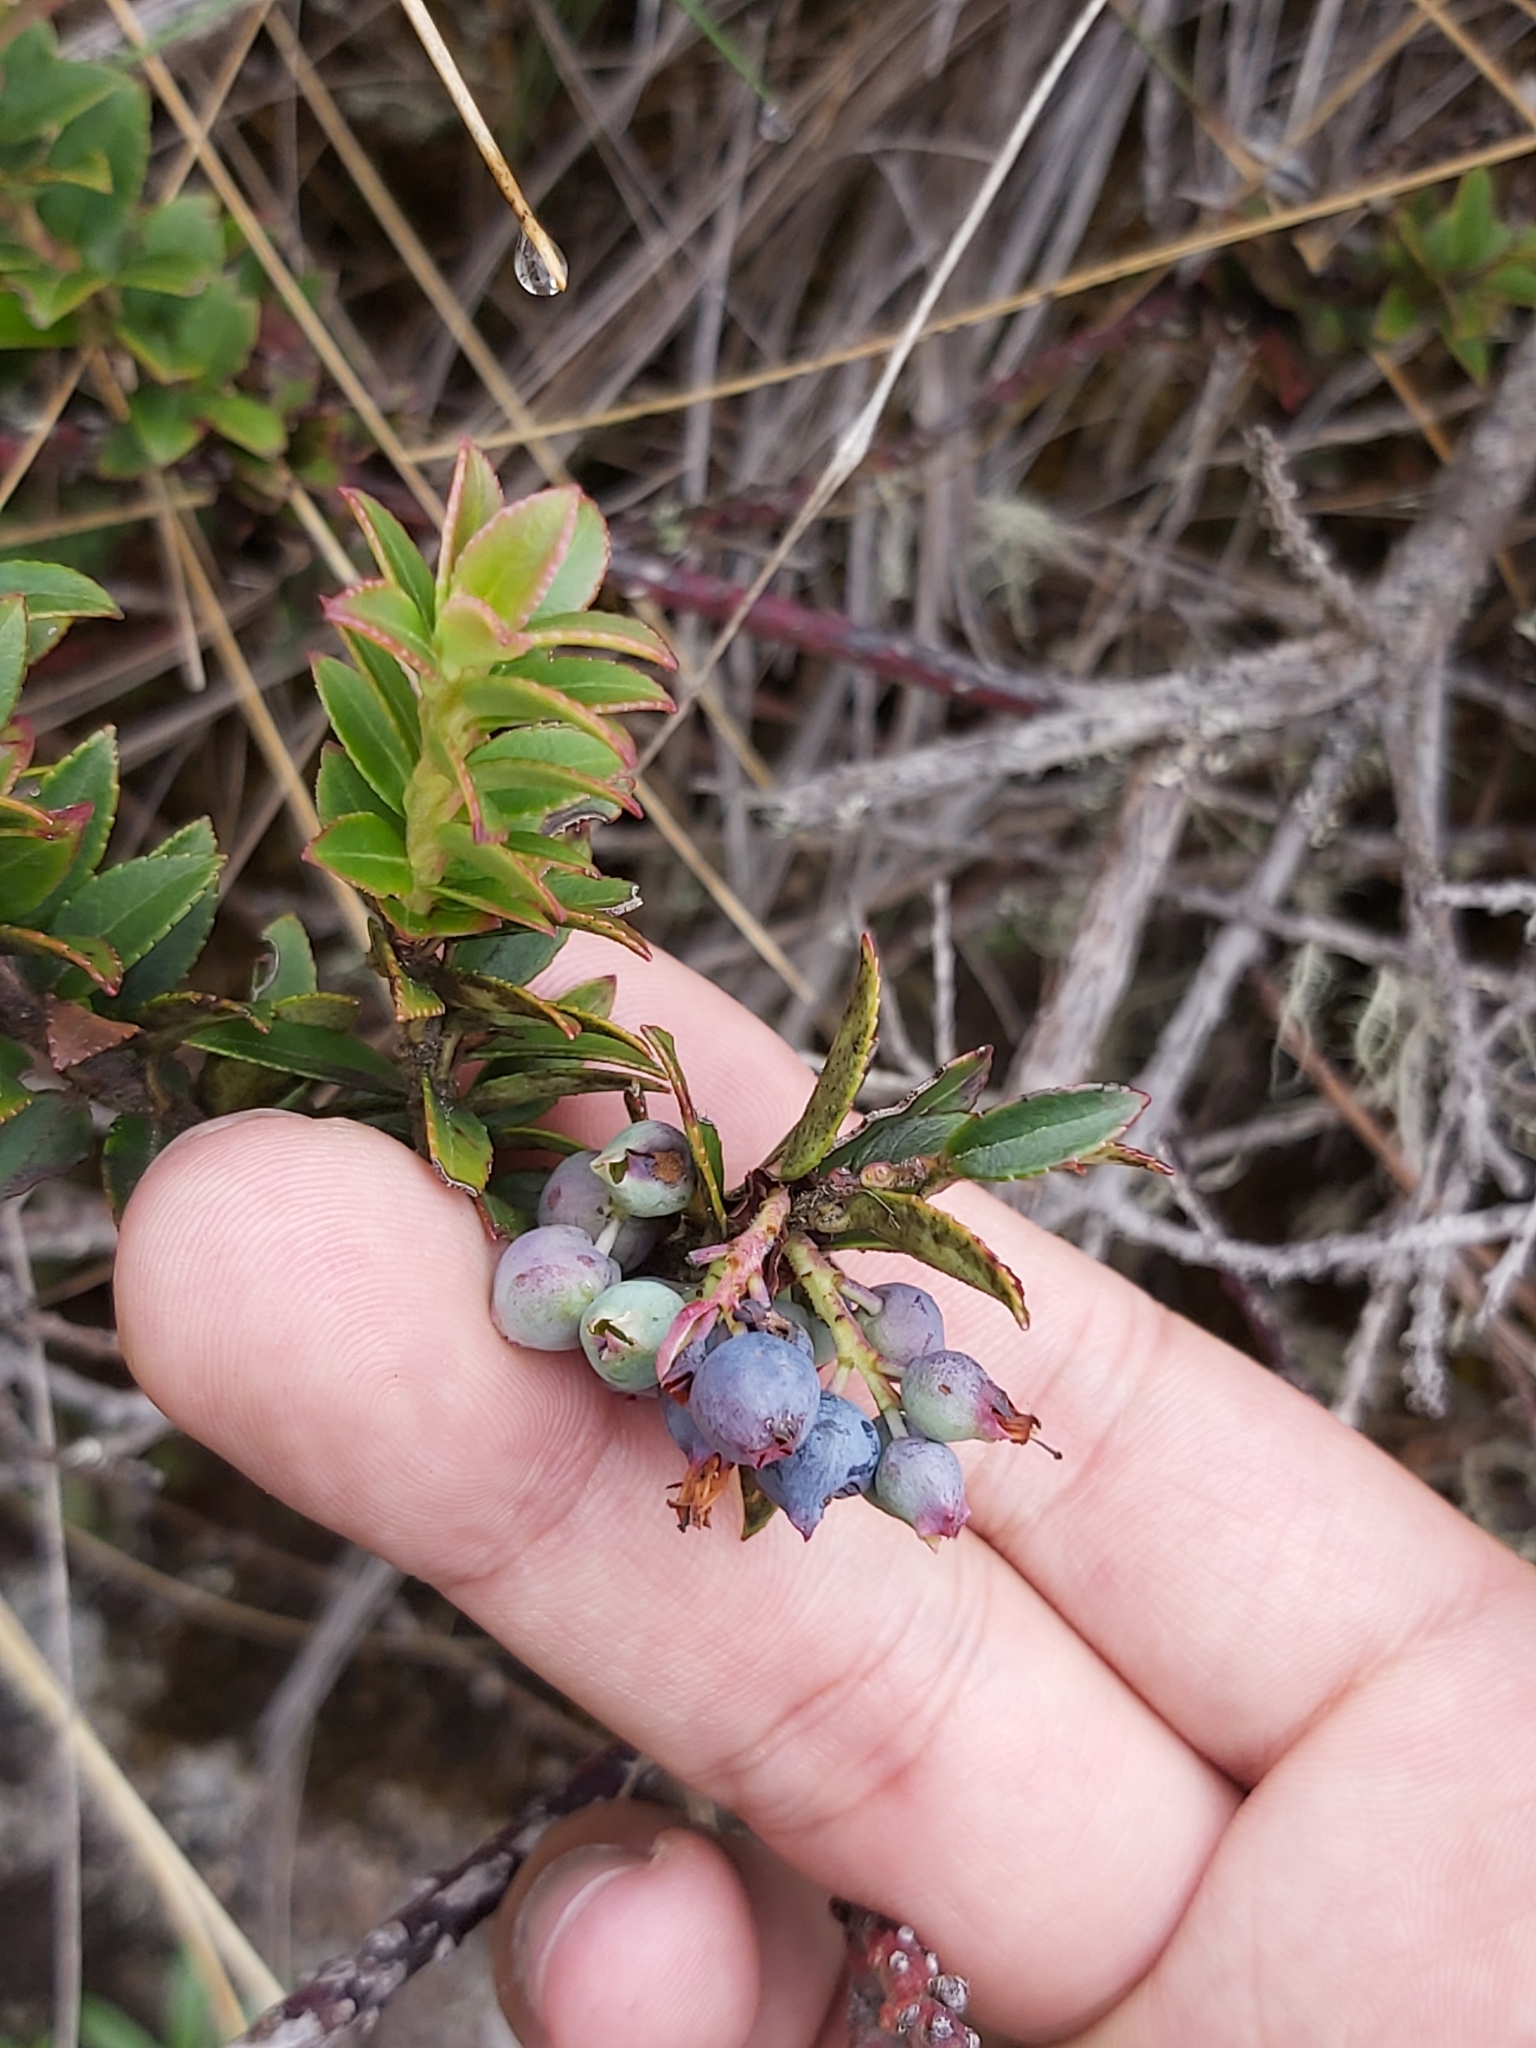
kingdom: Plantae
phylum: Tracheophyta
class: Magnoliopsida
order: Ericales
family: Ericaceae
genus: Vaccinium
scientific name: Vaccinium floribundum
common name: Colombian blueberry
